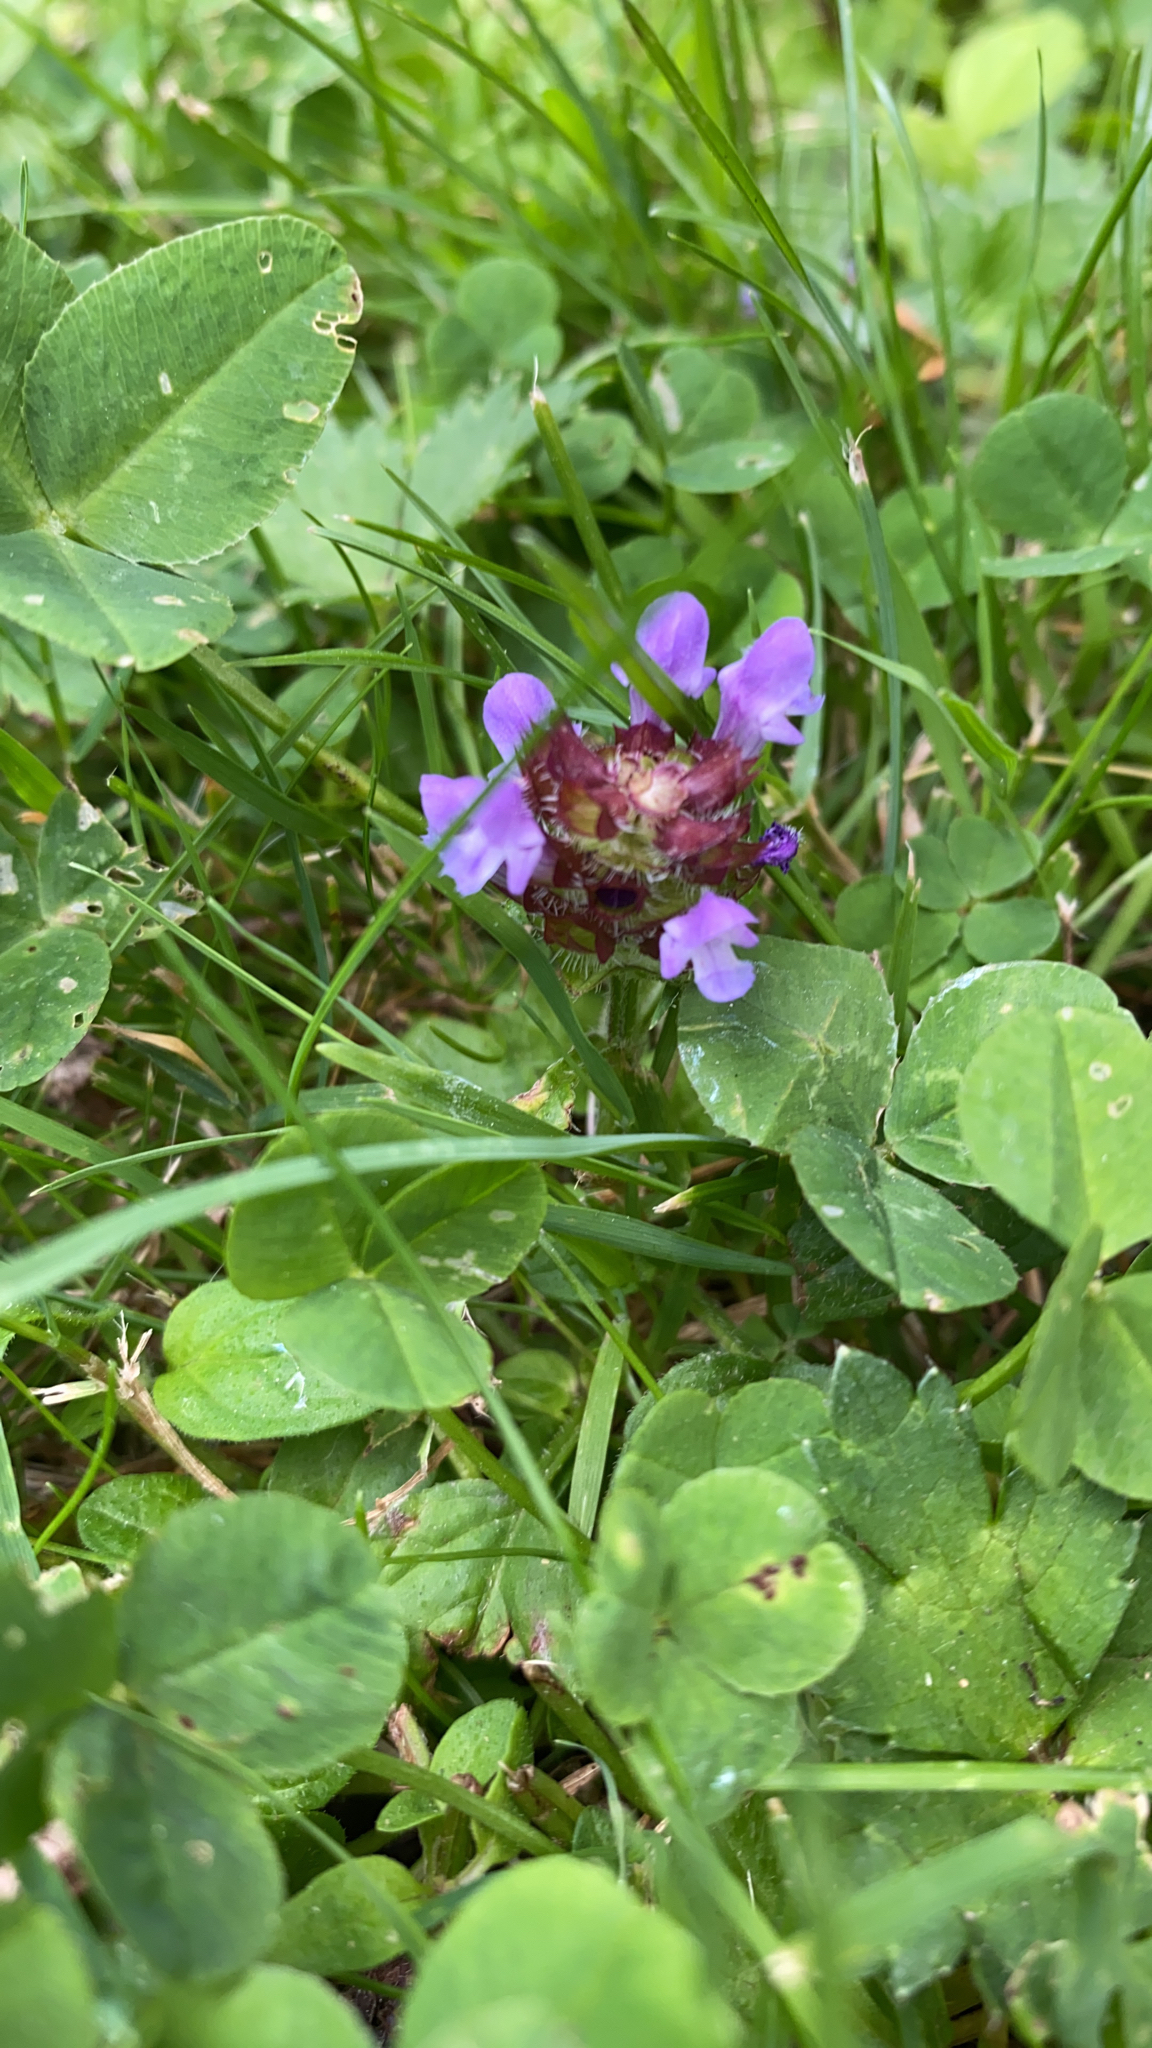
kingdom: Plantae
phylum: Tracheophyta
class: Magnoliopsida
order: Lamiales
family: Lamiaceae
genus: Prunella
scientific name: Prunella vulgaris
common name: Heal-all
